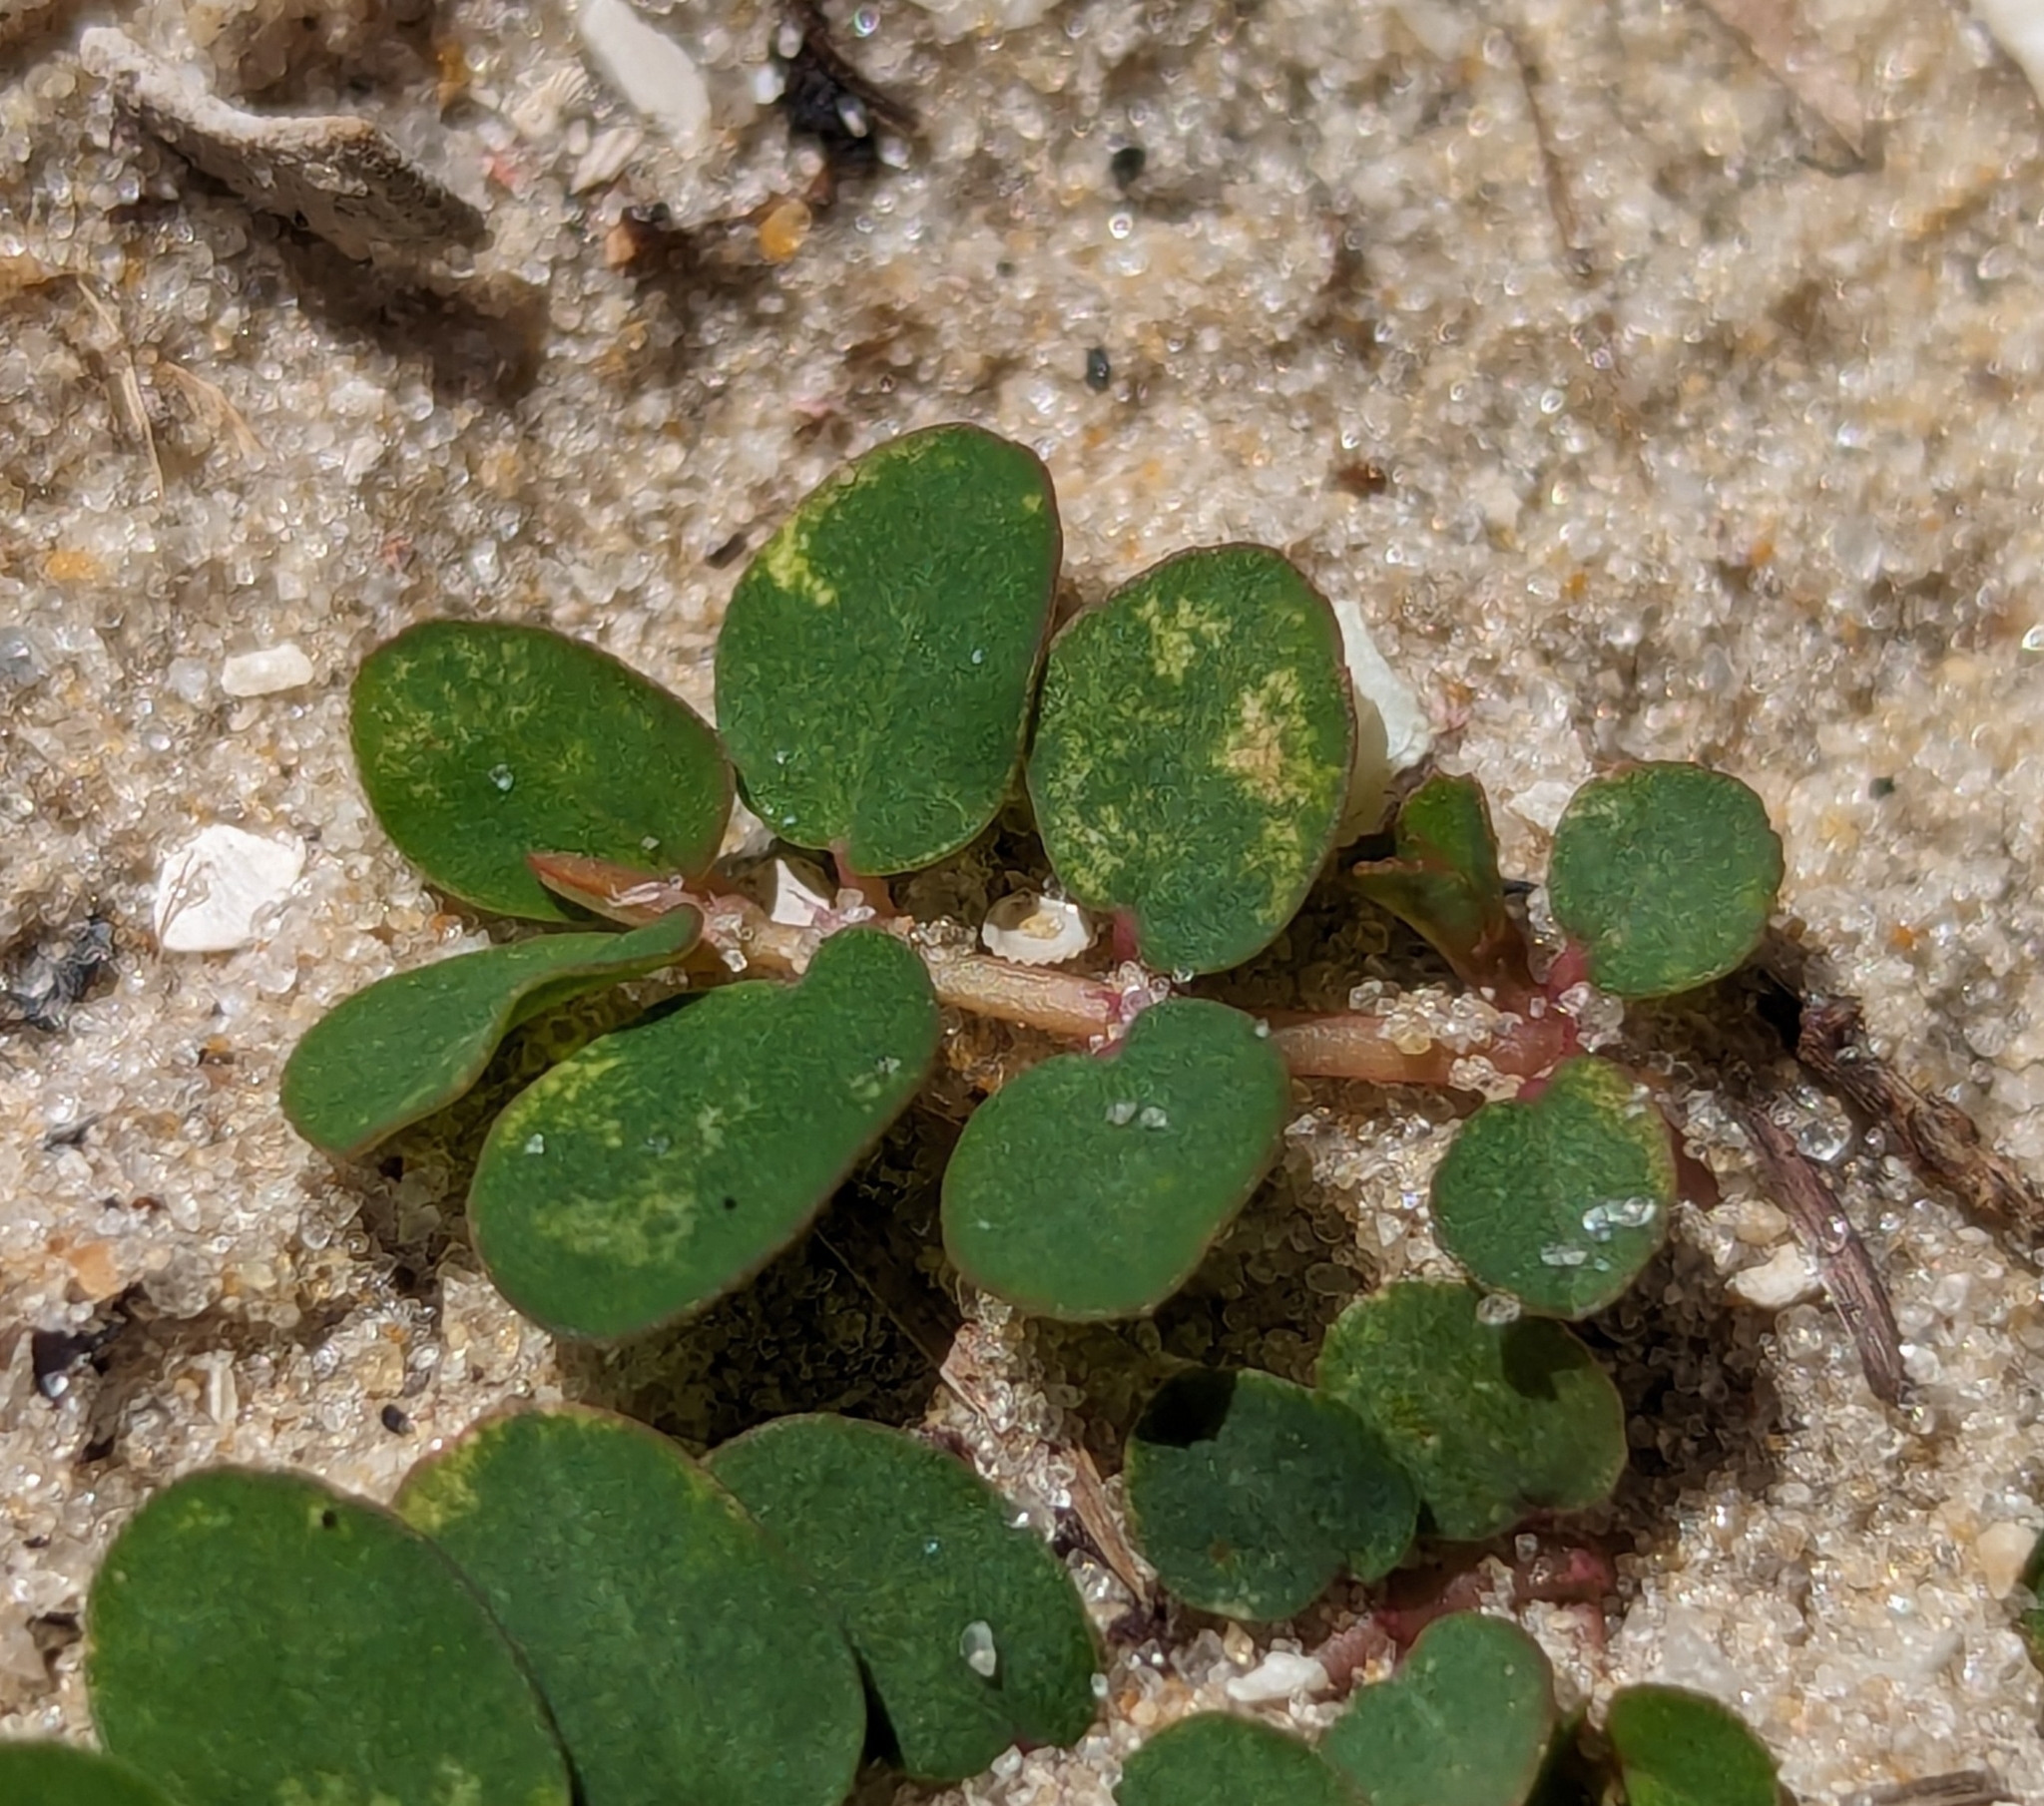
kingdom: Plantae
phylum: Tracheophyta
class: Magnoliopsida
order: Malpighiales
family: Euphorbiaceae
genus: Euphorbia
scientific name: Euphorbia blodgettii
